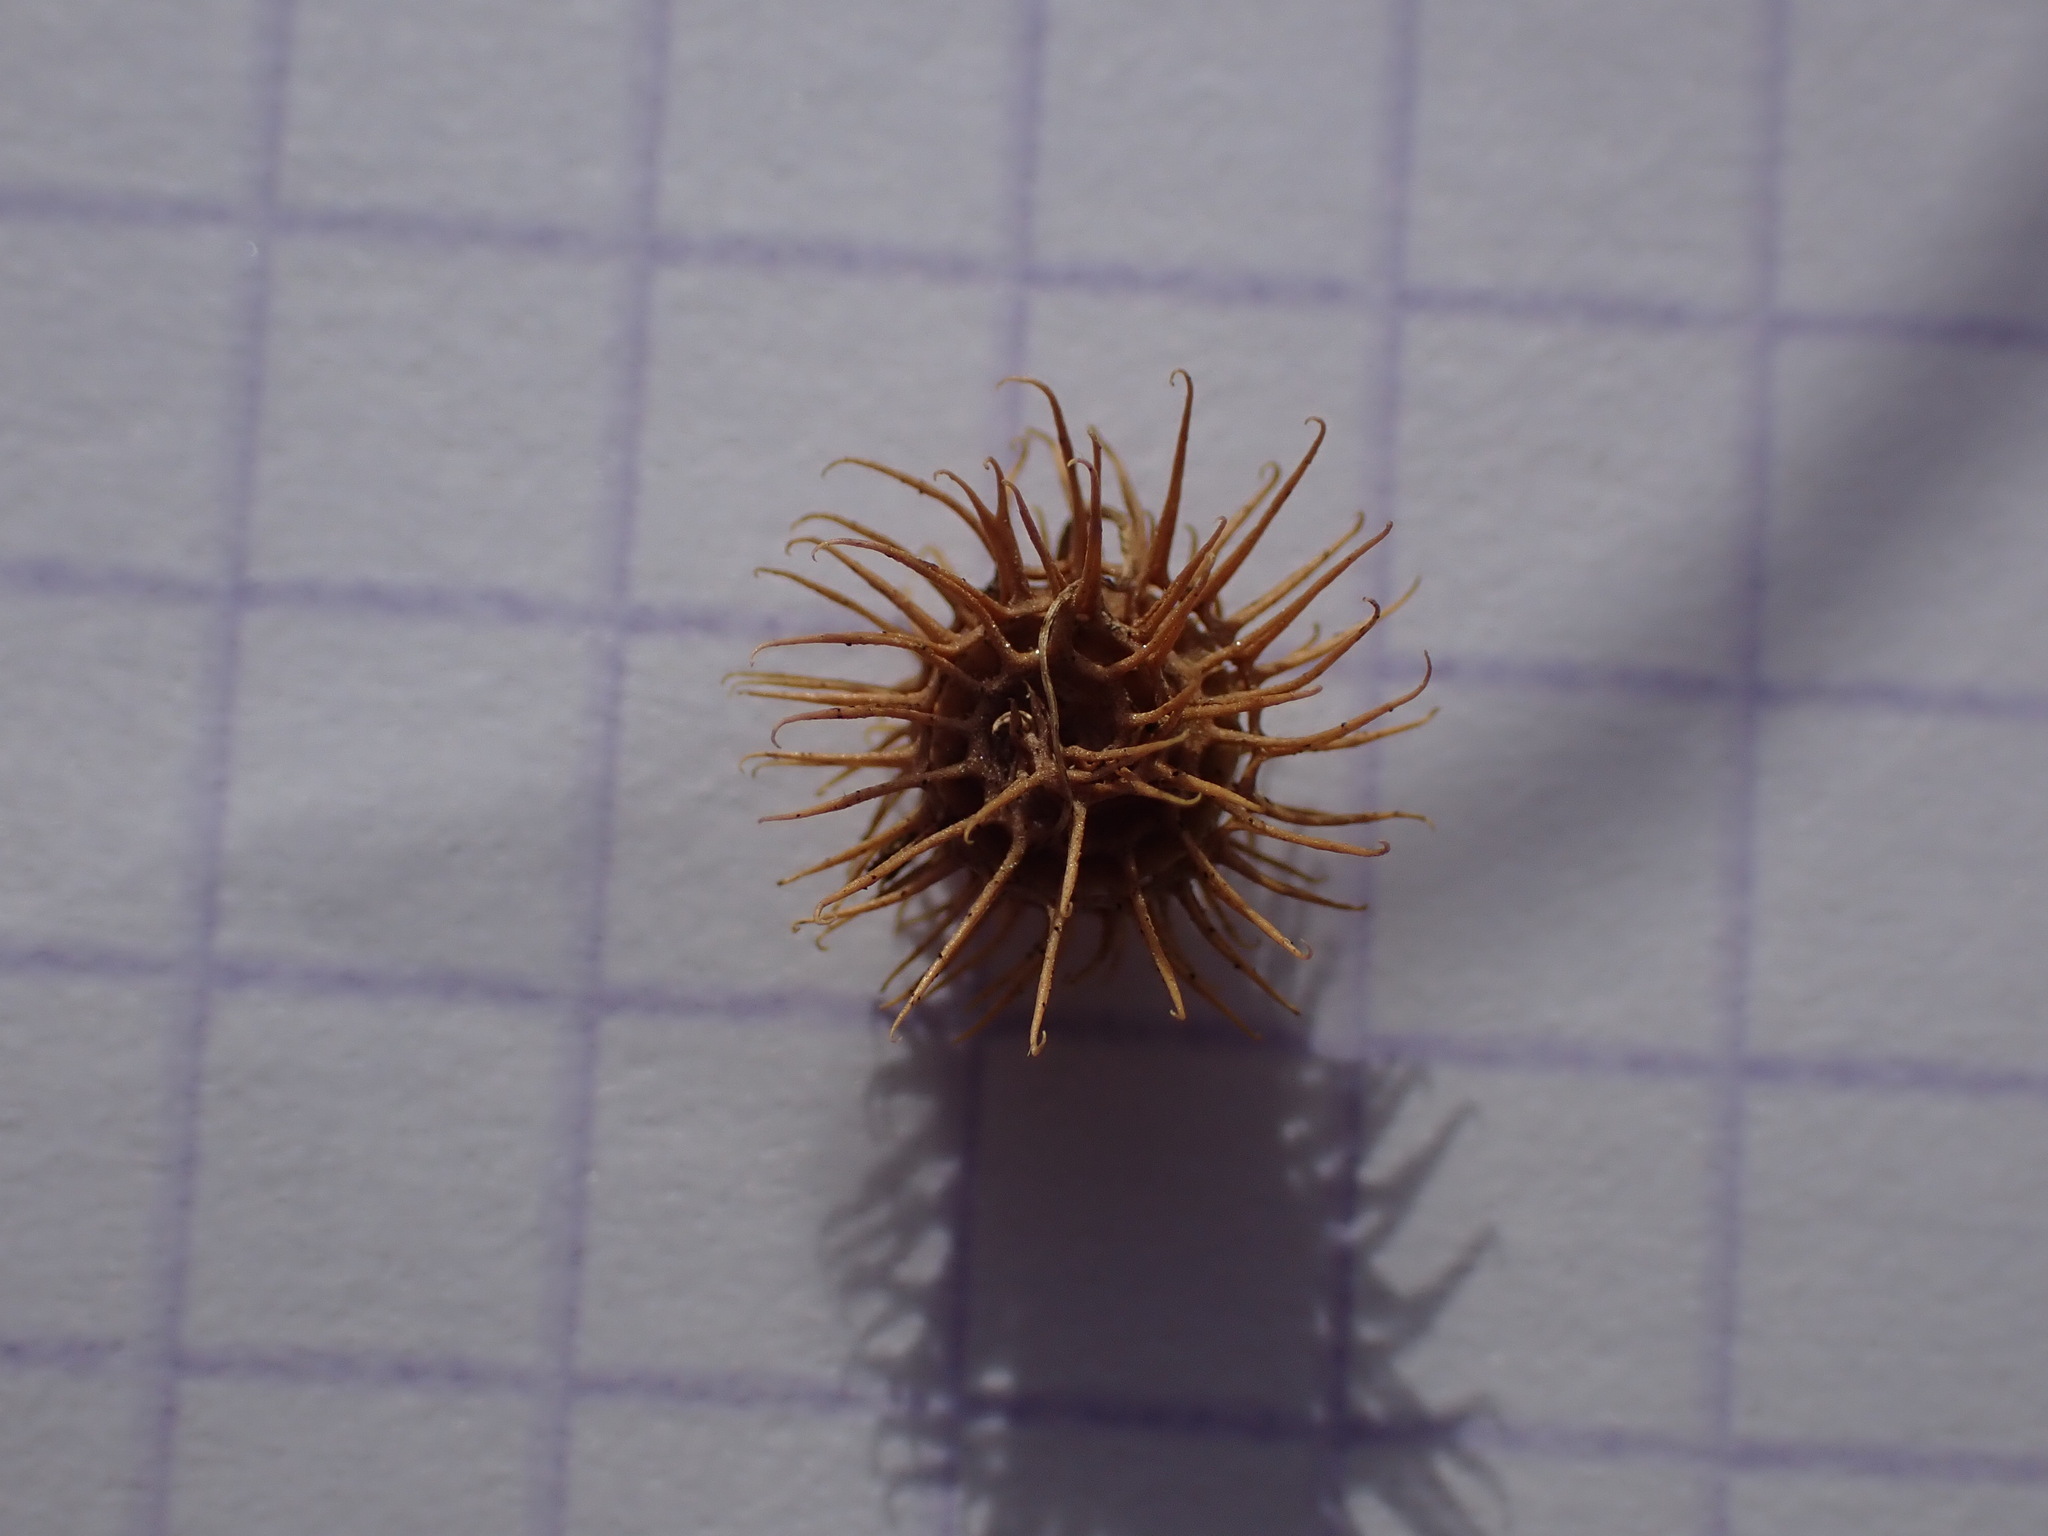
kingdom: Plantae
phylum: Tracheophyta
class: Magnoliopsida
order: Fabales
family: Fabaceae
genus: Medicago
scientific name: Medicago minima
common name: Little bur-clover
